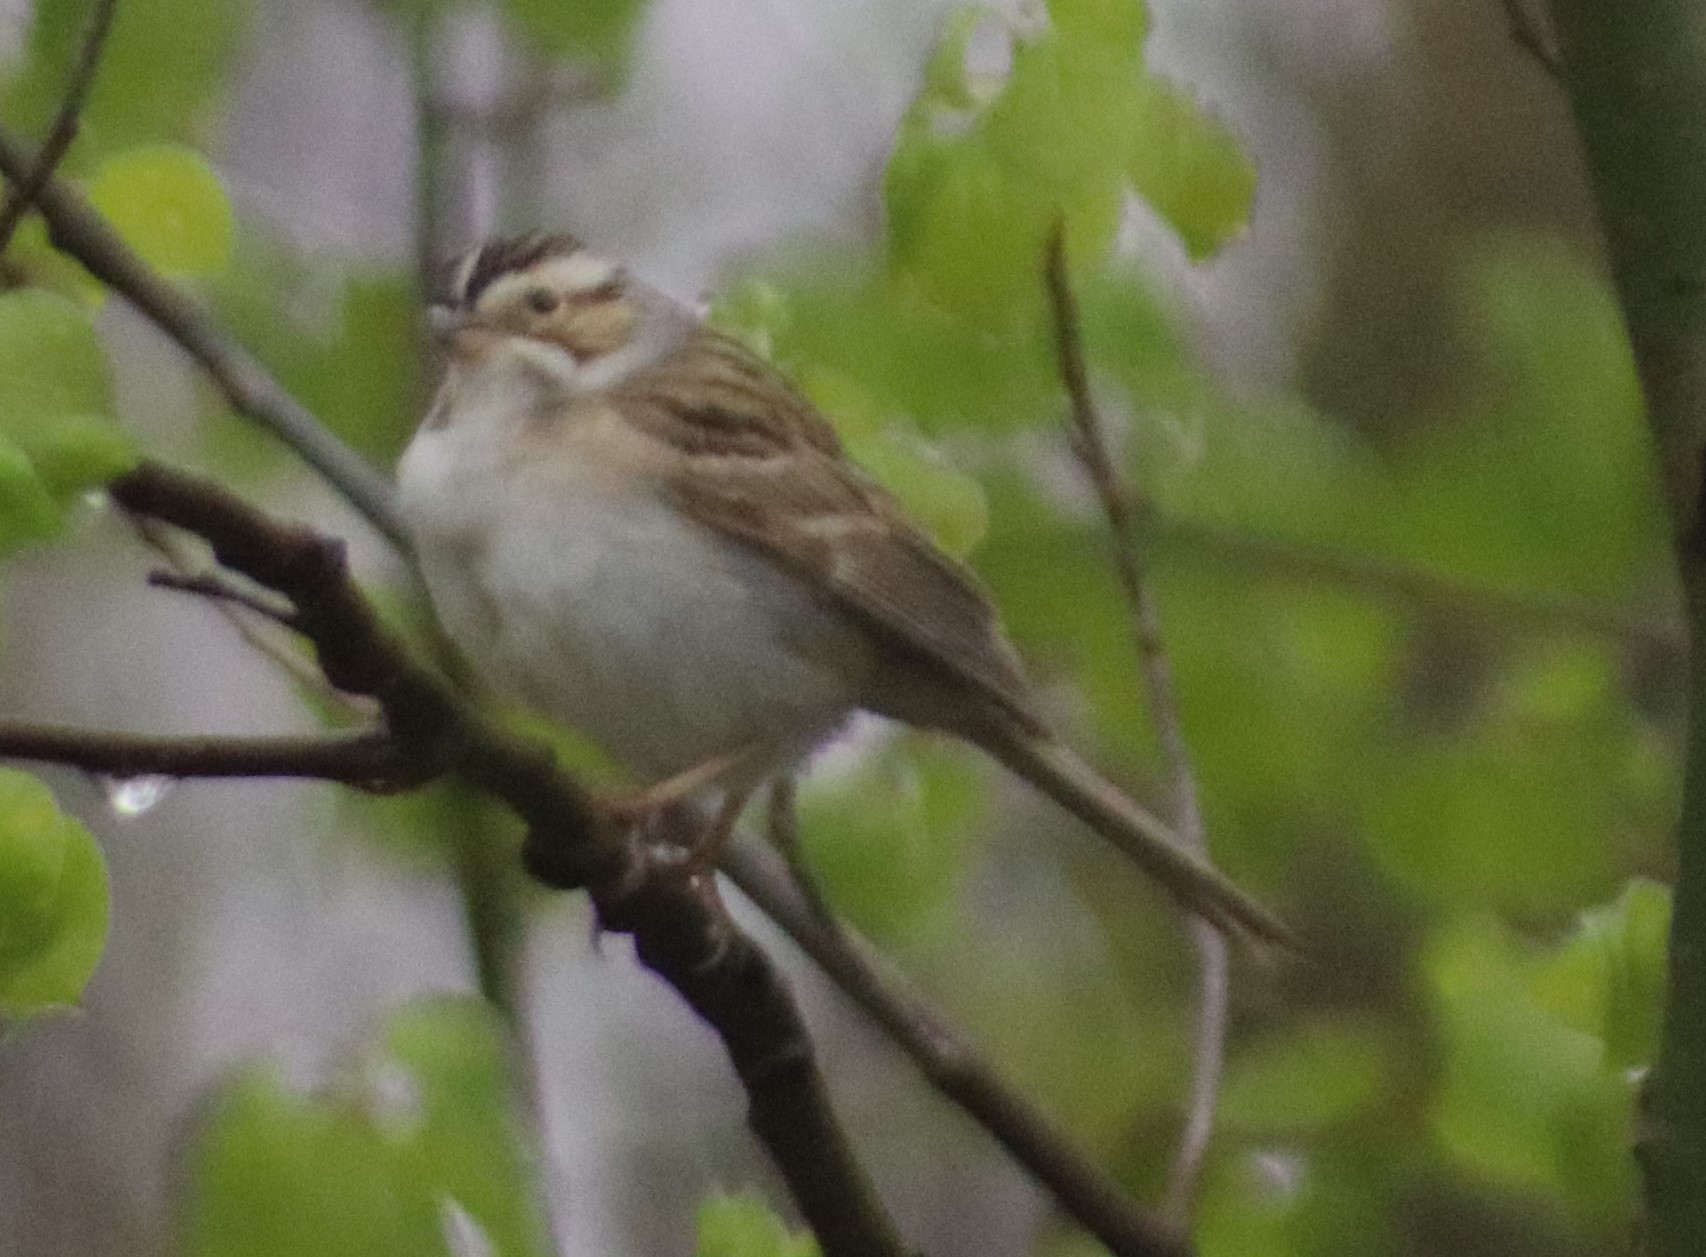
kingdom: Animalia
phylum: Chordata
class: Aves
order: Passeriformes
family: Passerellidae
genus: Spizella
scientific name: Spizella pallida
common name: Clay-colored sparrow
